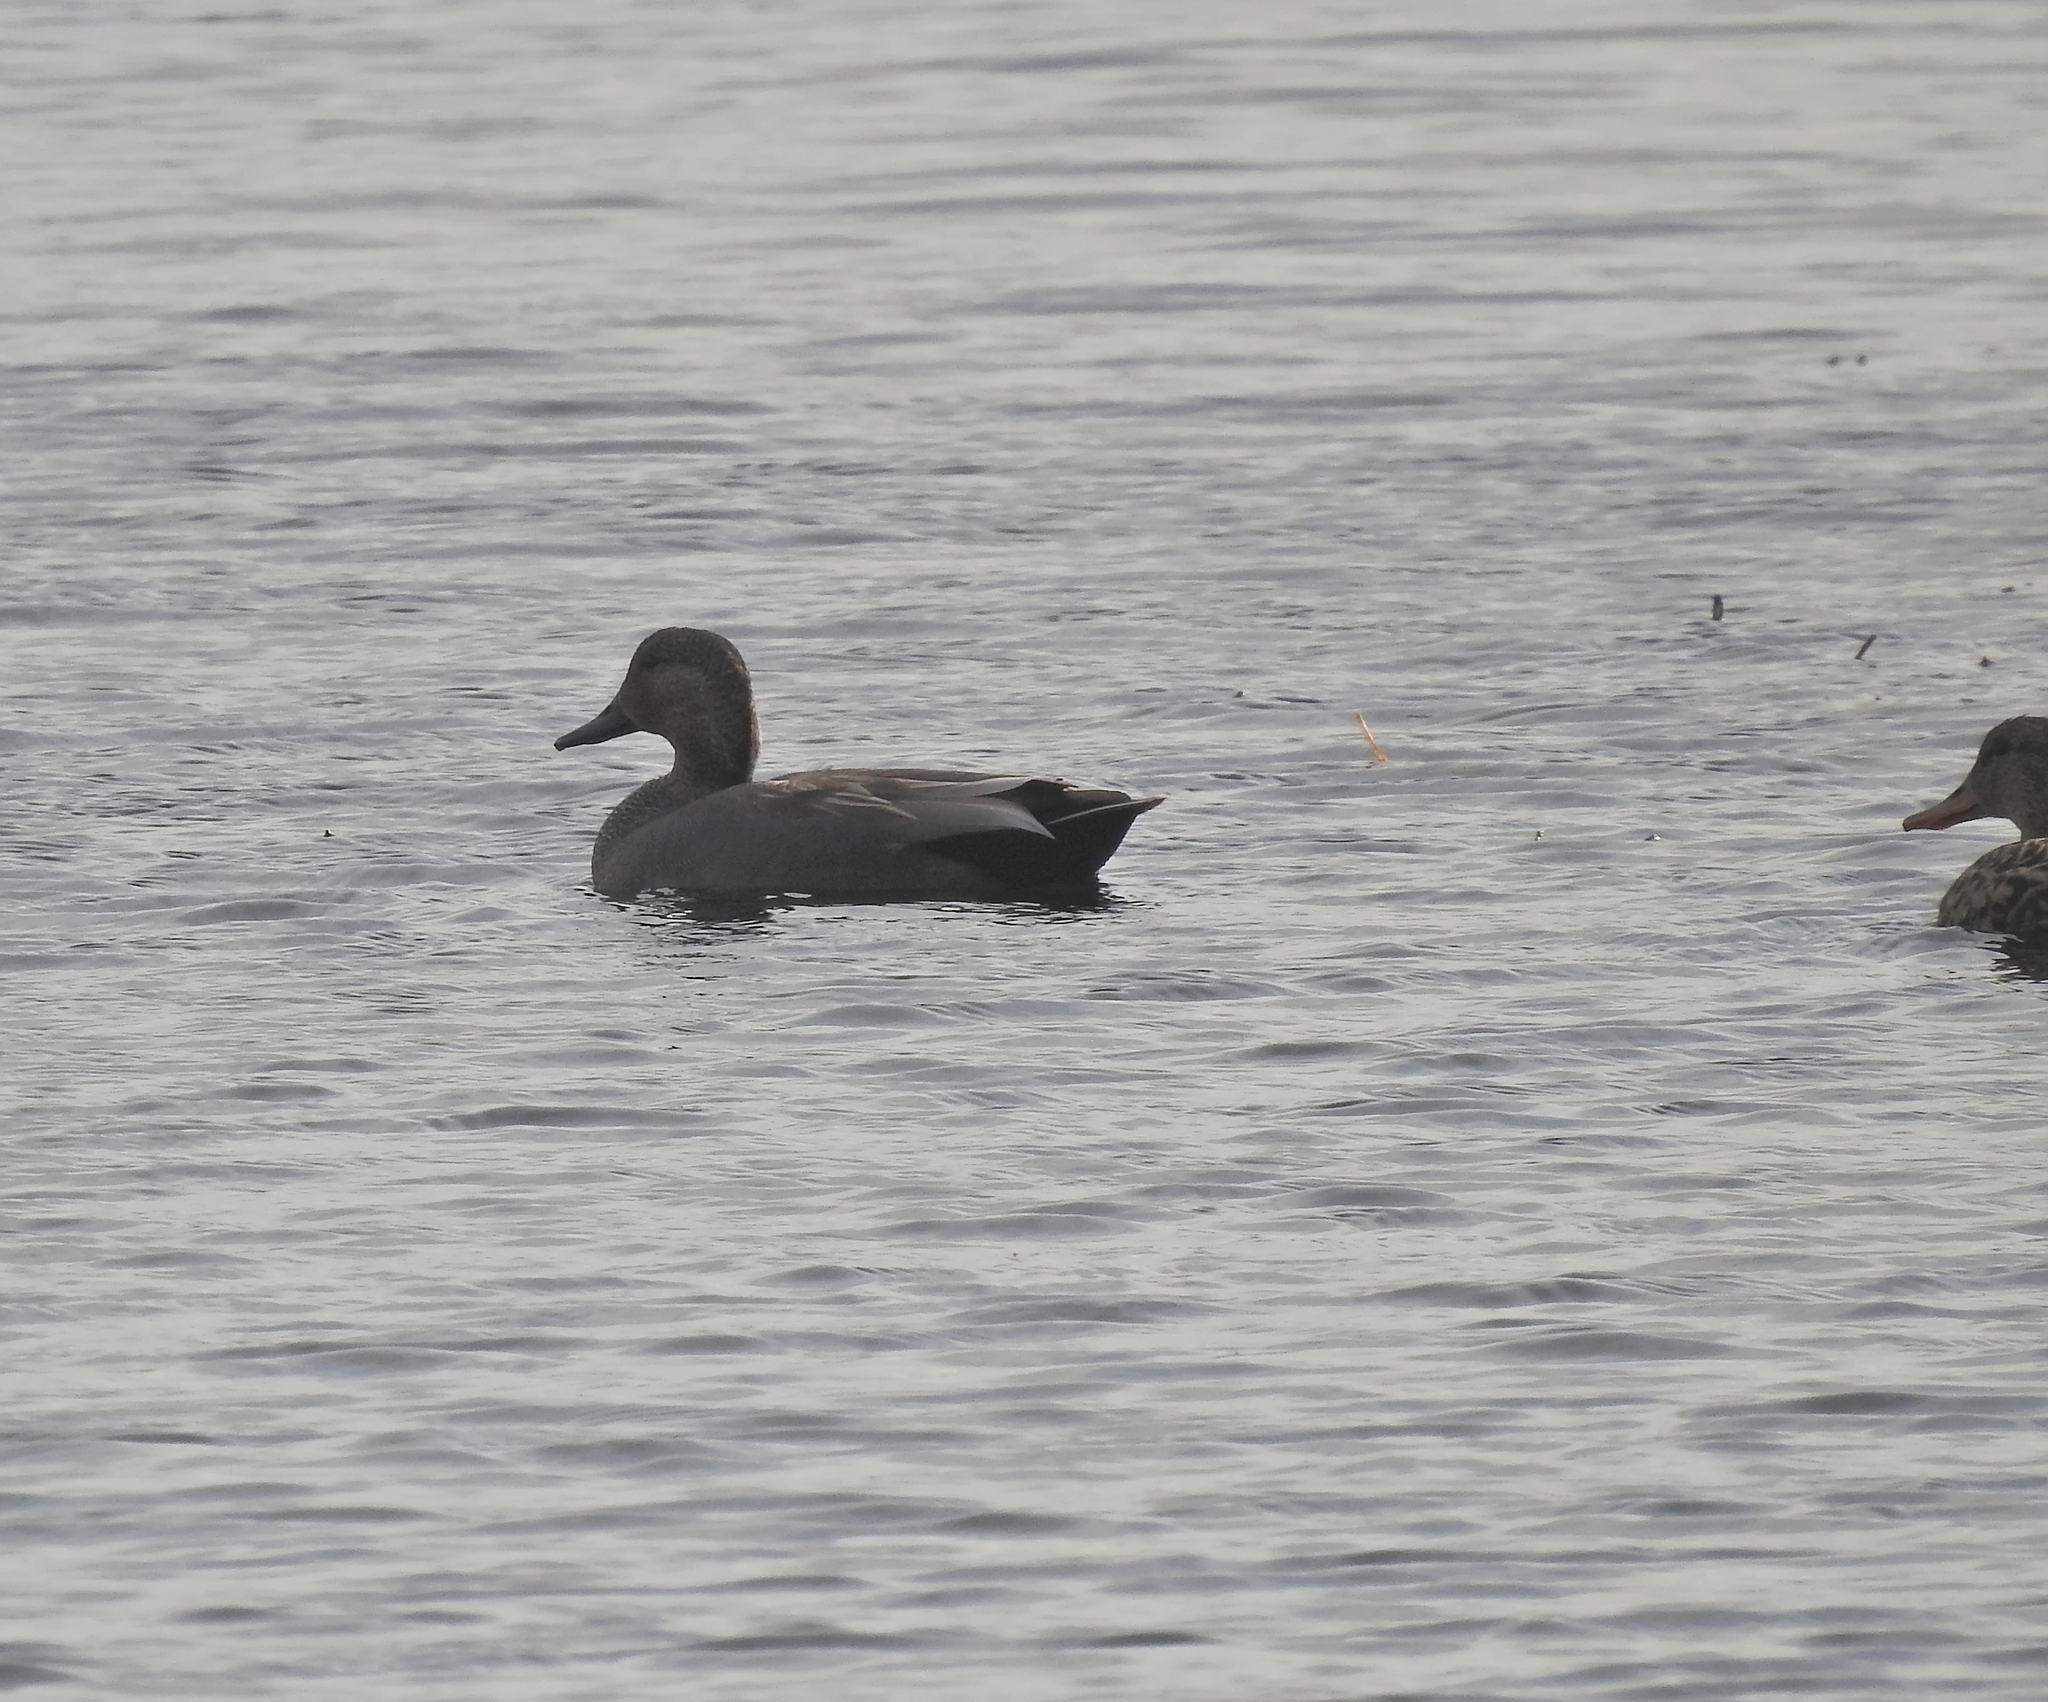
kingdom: Animalia
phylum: Chordata
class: Aves
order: Anseriformes
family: Anatidae
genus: Mareca
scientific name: Mareca strepera
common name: Gadwall
